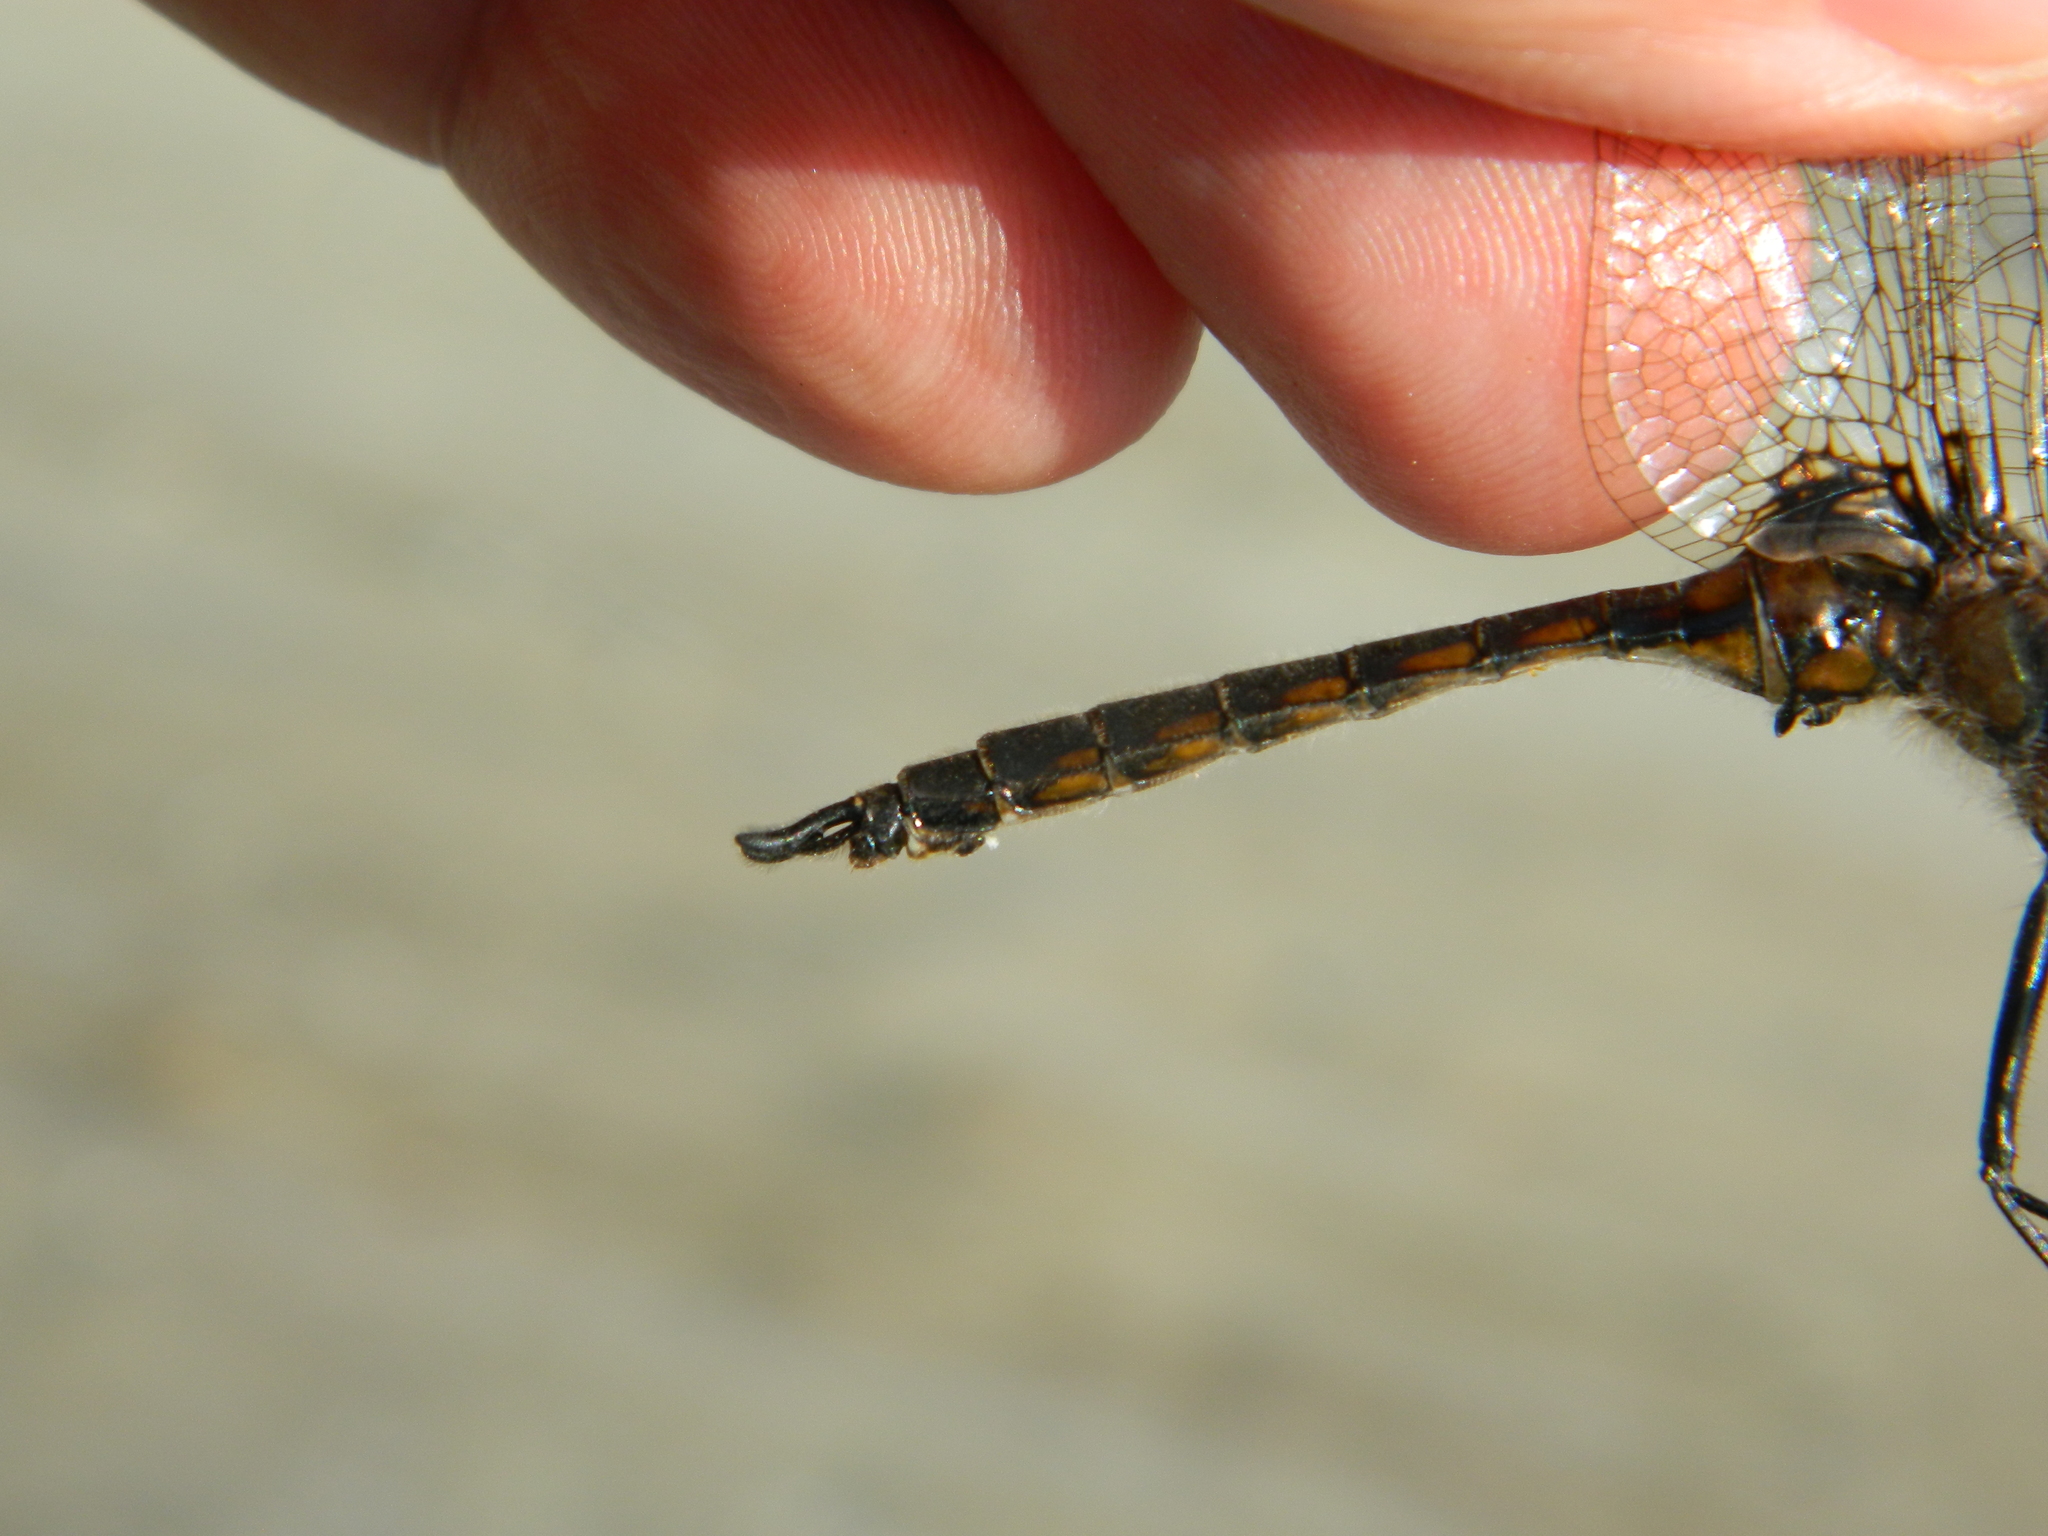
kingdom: Animalia
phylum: Arthropoda
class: Insecta
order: Odonata
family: Corduliidae
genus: Epitheca
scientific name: Epitheca spinigera
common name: Spiny baskettail
